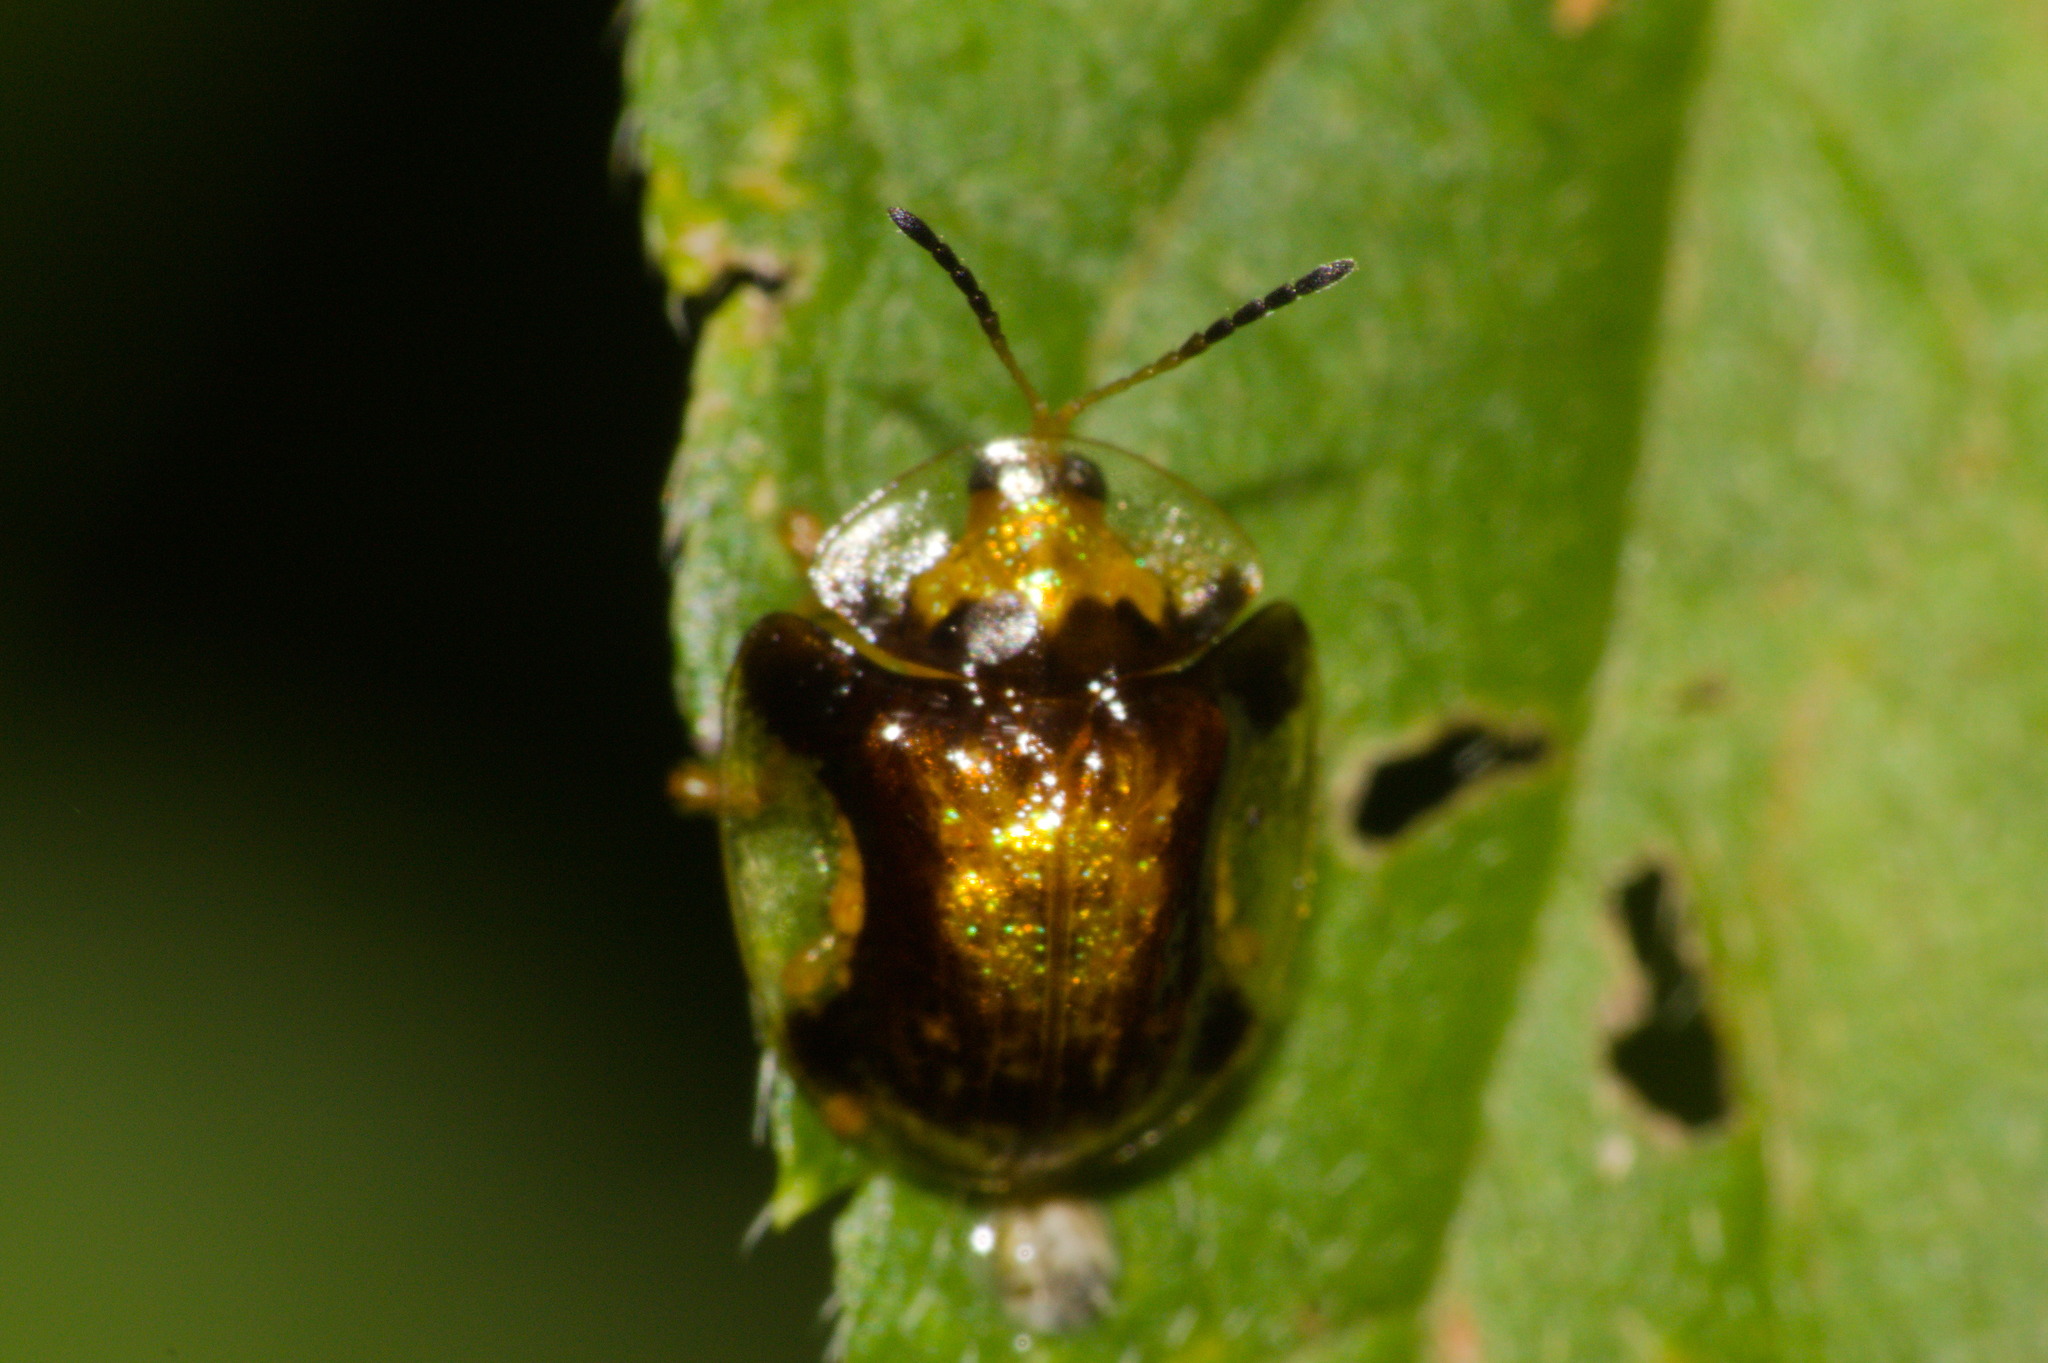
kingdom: Animalia
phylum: Arthropoda
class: Insecta
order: Coleoptera
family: Chrysomelidae
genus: Cteisella
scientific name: Cteisella ramosa
